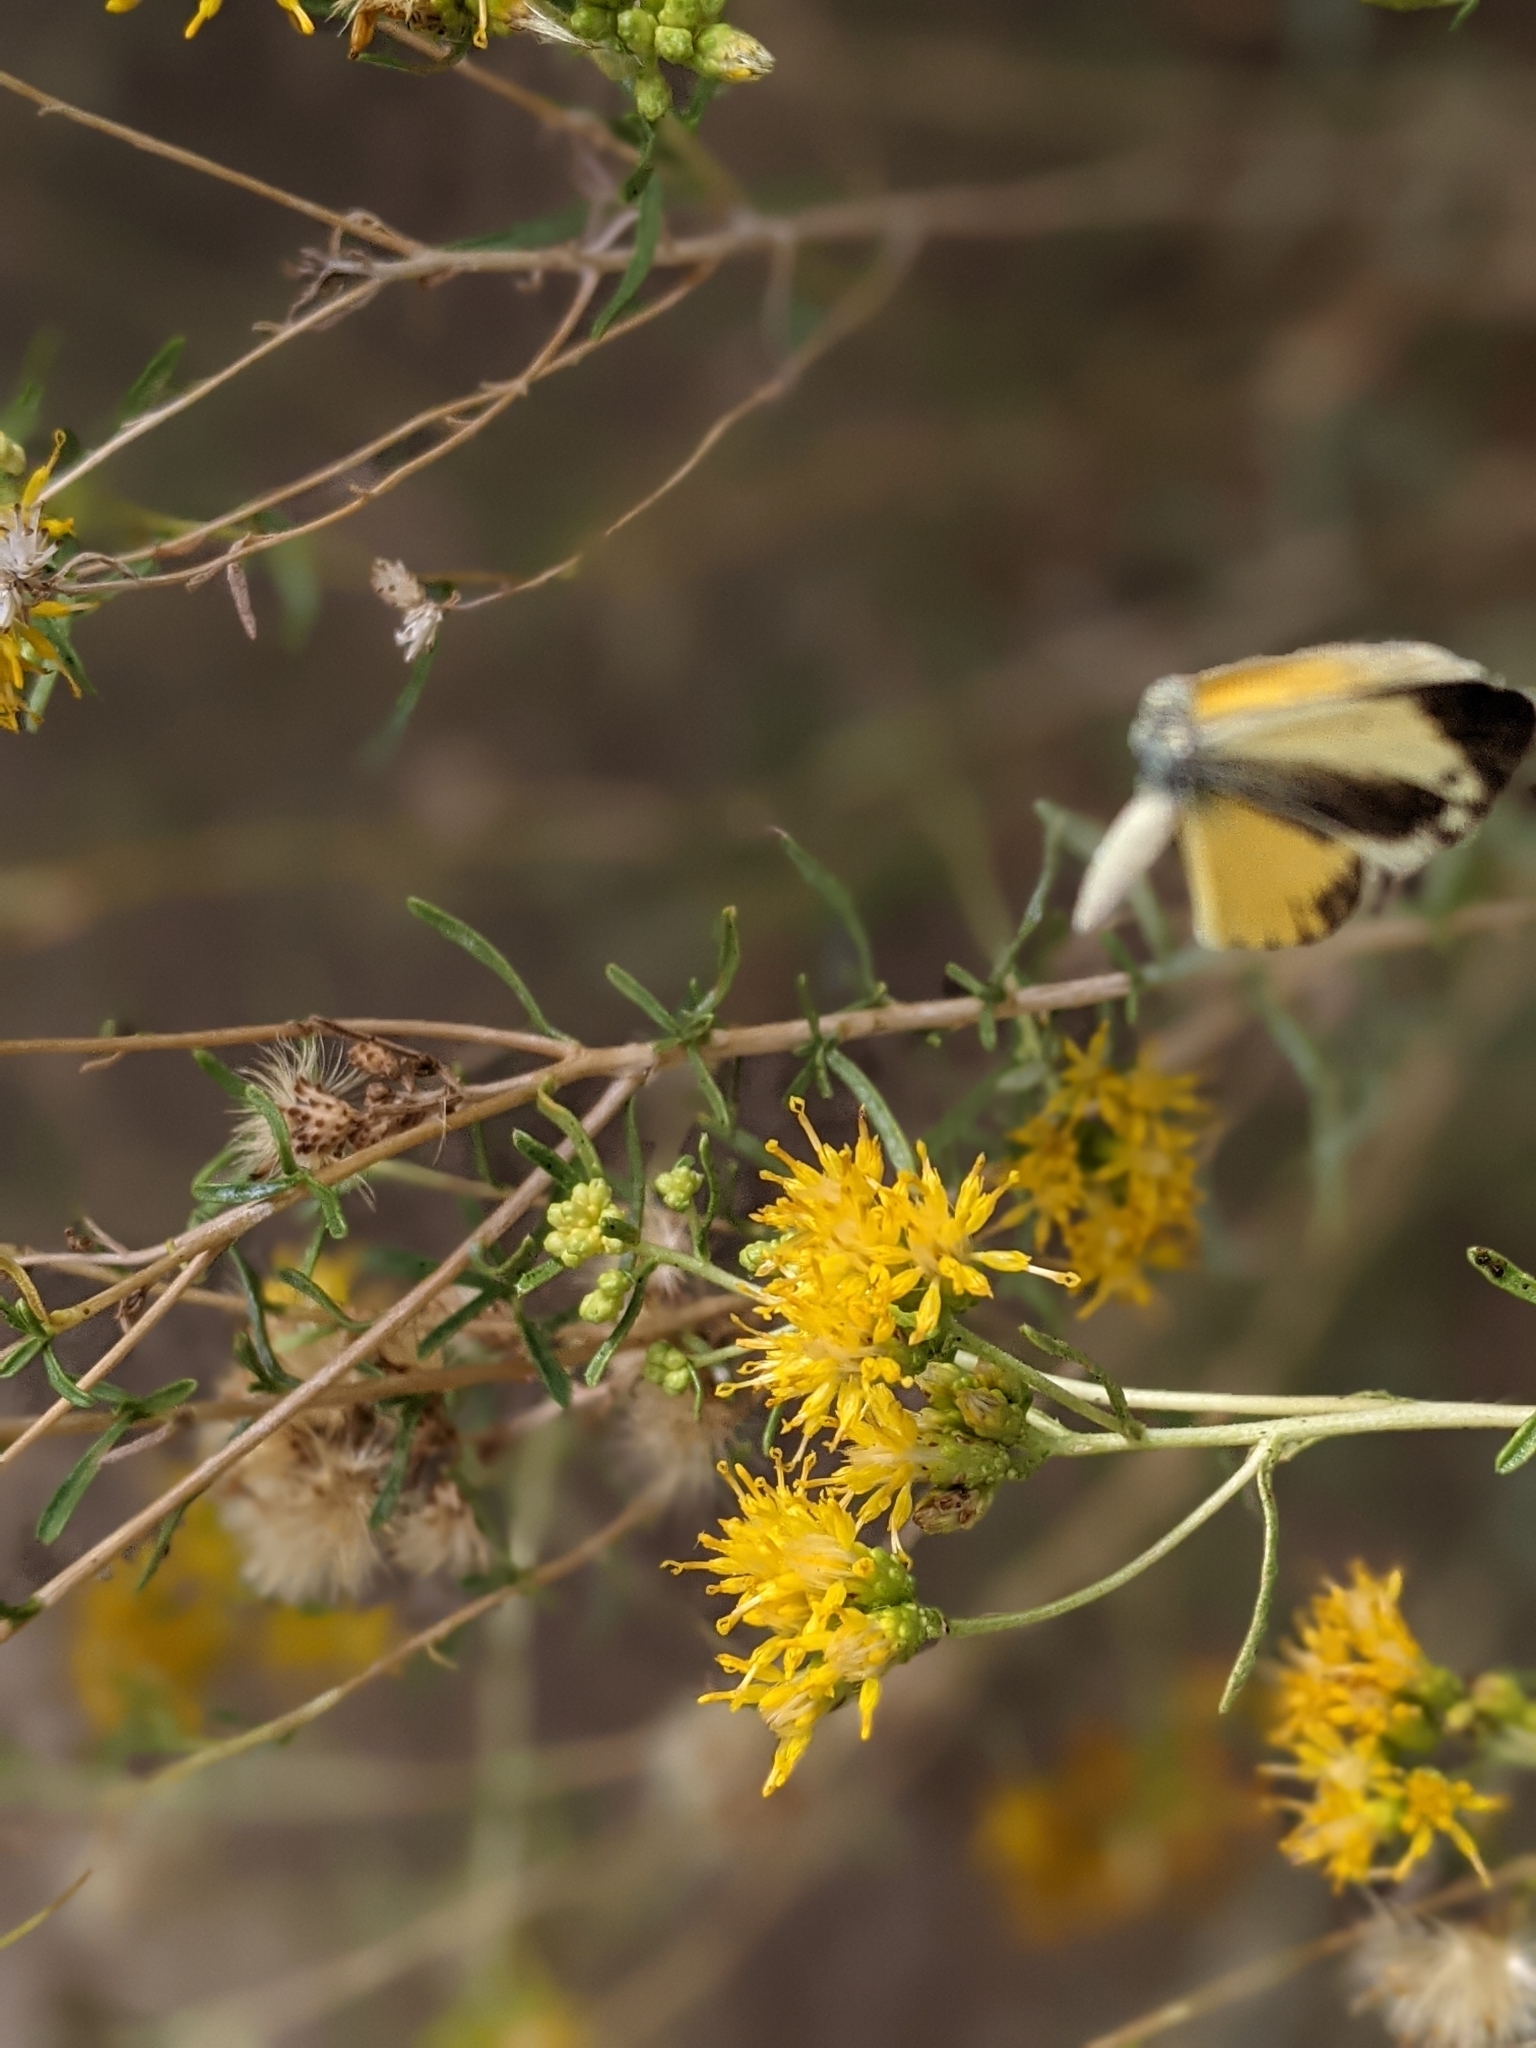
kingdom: Animalia
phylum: Arthropoda
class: Insecta
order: Lepidoptera
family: Pieridae
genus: Nathalis
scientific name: Nathalis iole
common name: Dainty sulphur
